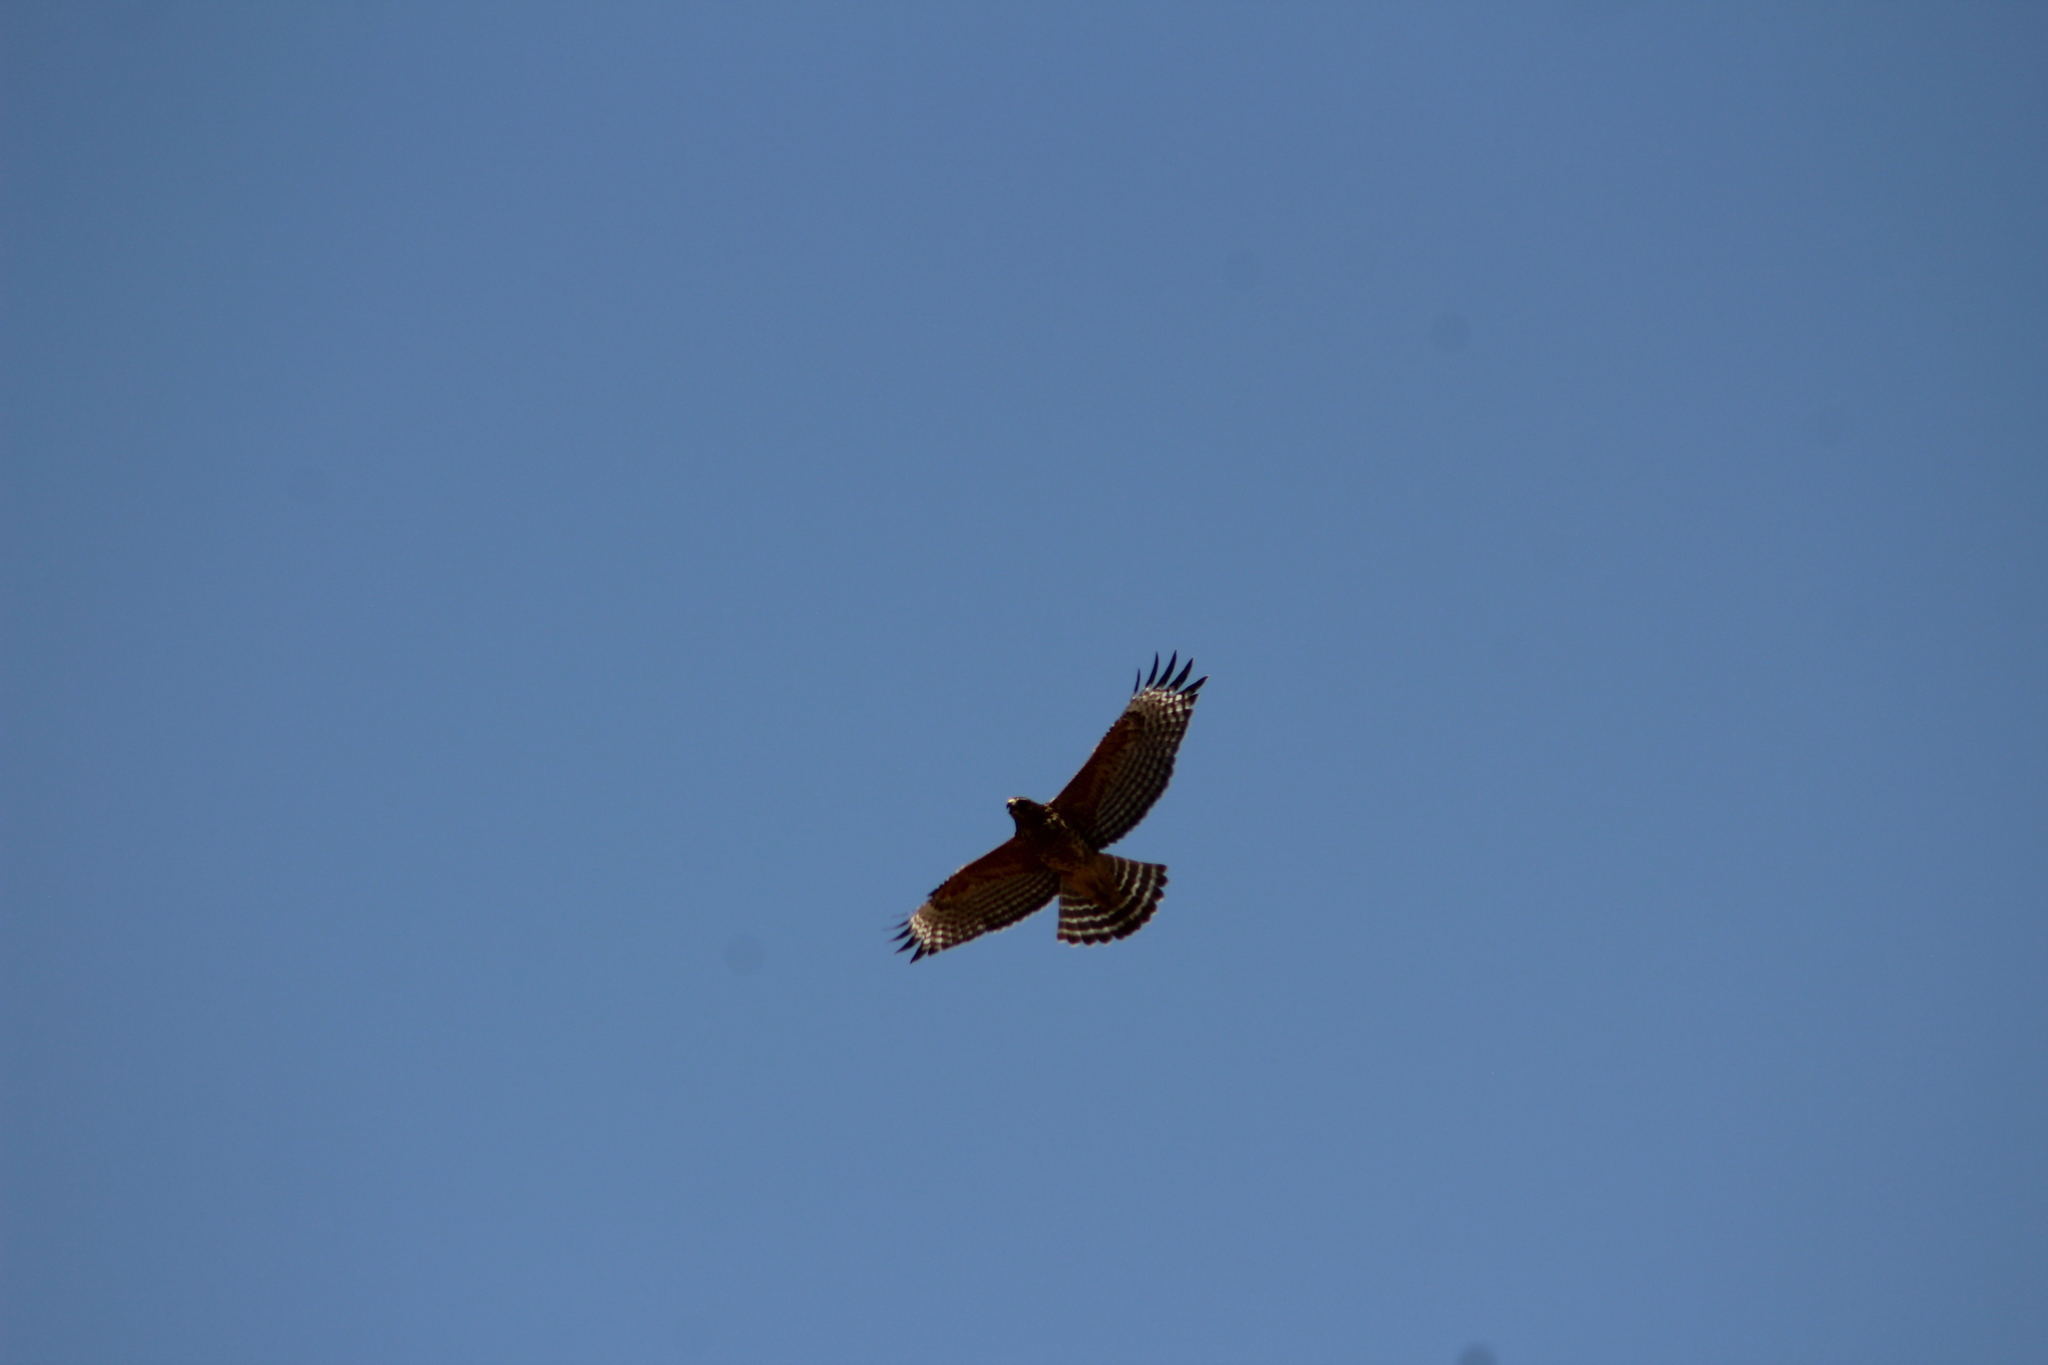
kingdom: Animalia
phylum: Chordata
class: Aves
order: Accipitriformes
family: Accipitridae
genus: Buteo
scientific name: Buteo lineatus
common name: Red-shouldered hawk
